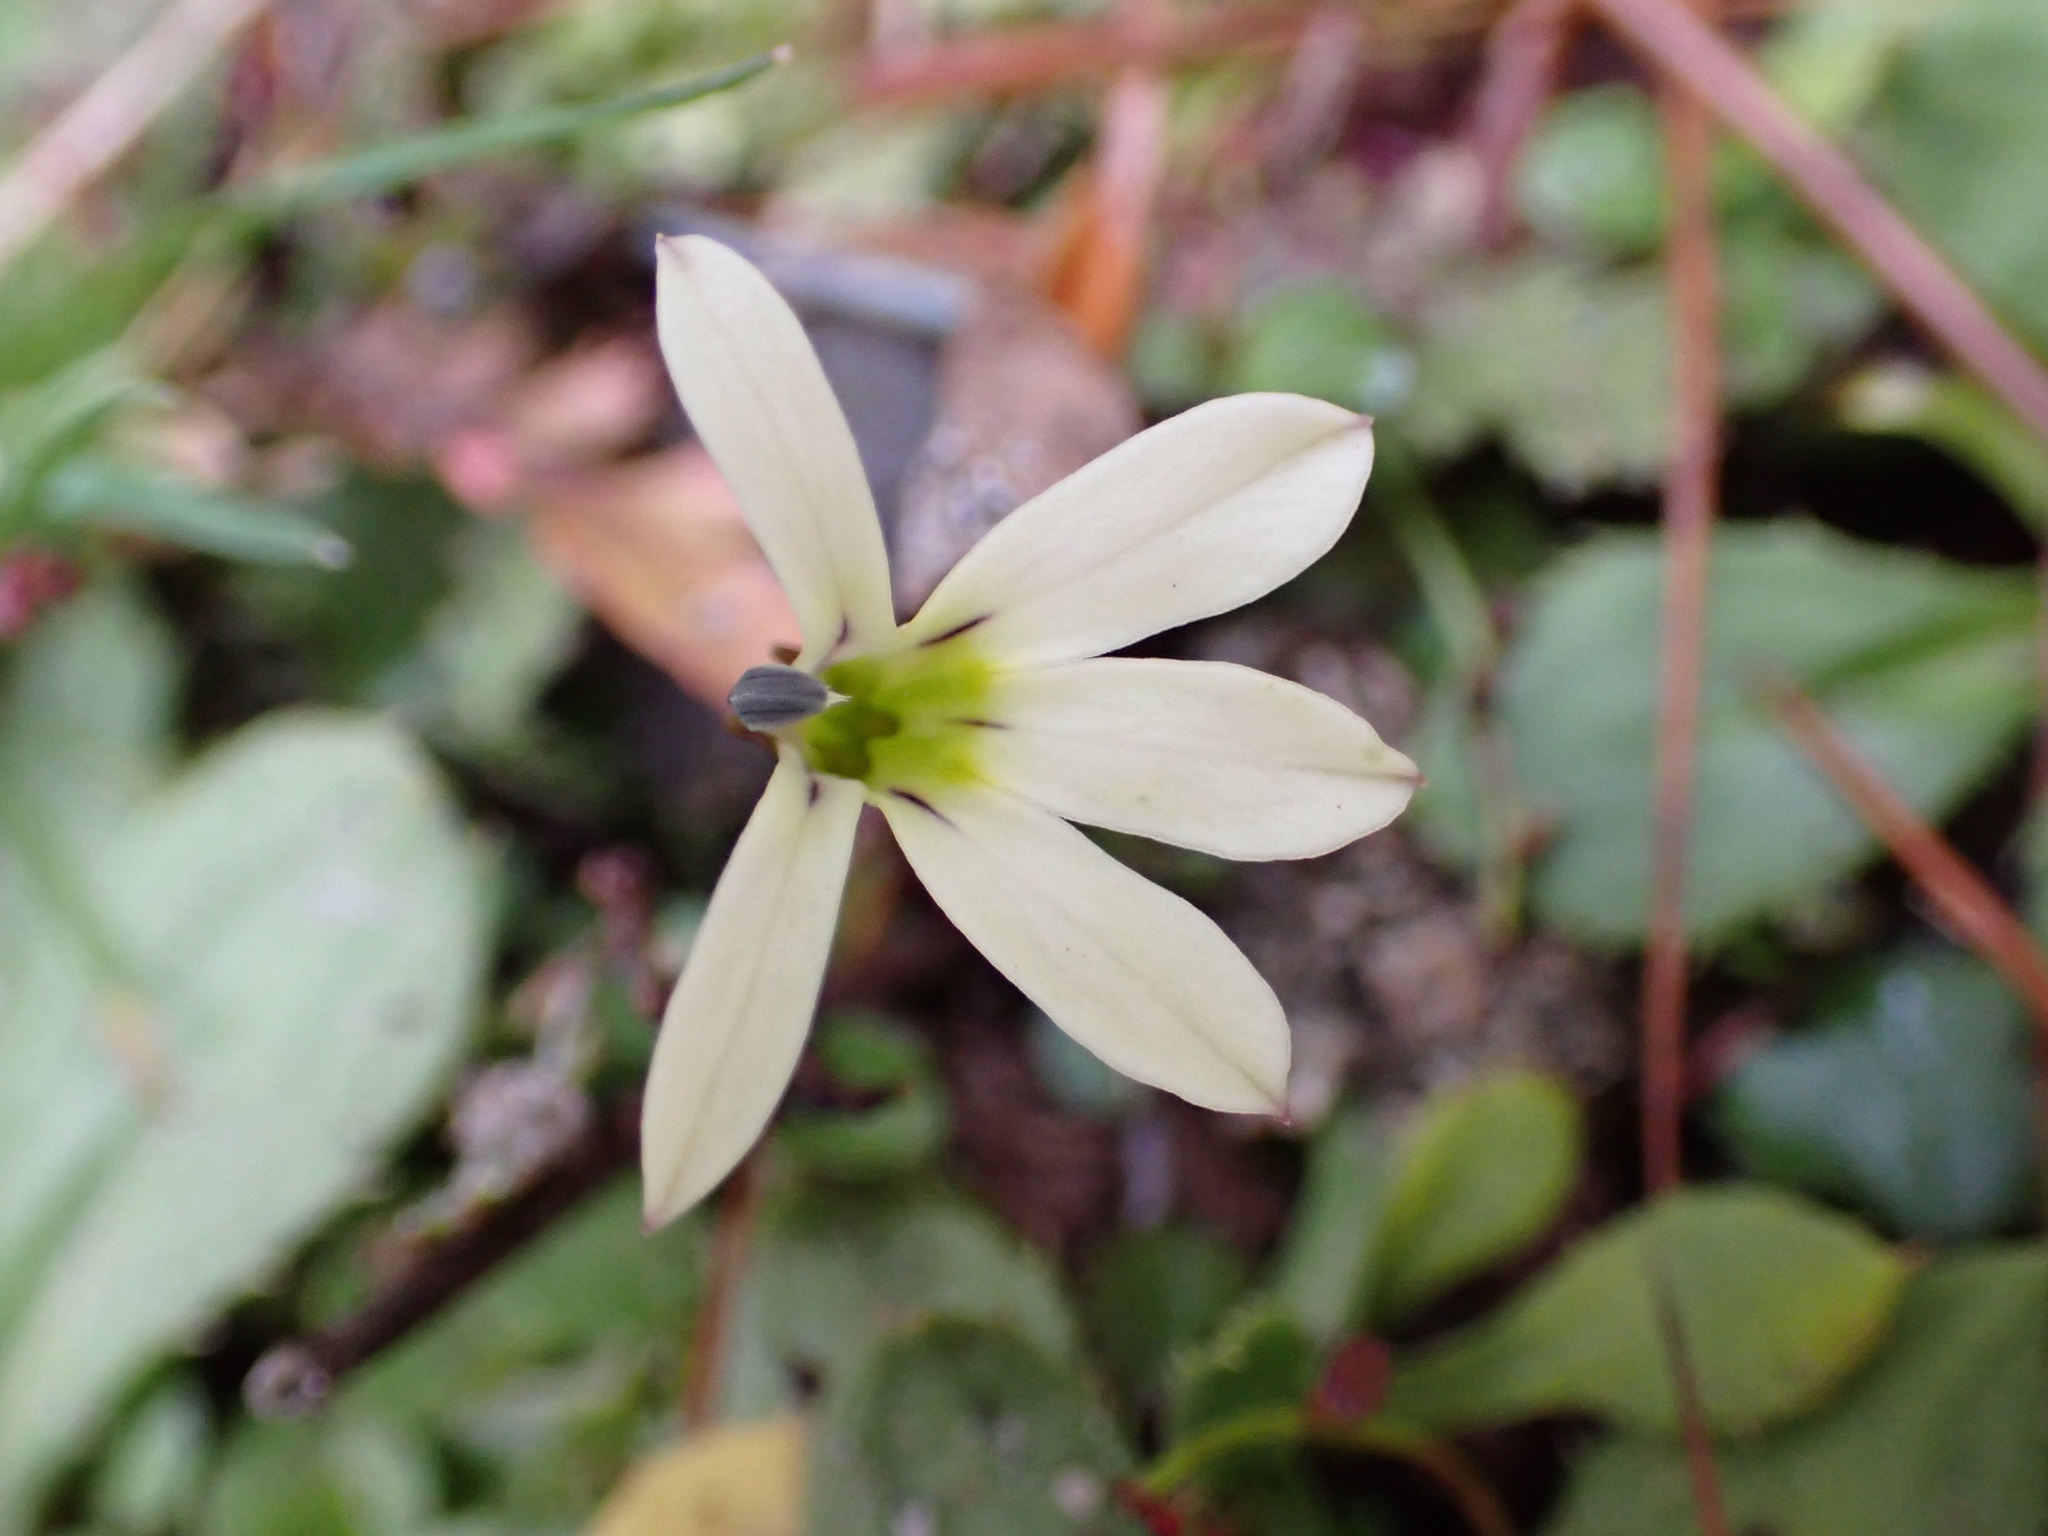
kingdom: Plantae
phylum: Tracheophyta
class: Magnoliopsida
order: Asterales
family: Campanulaceae
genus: Lobelia
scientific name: Lobelia angulata
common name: Lawn lobelia
